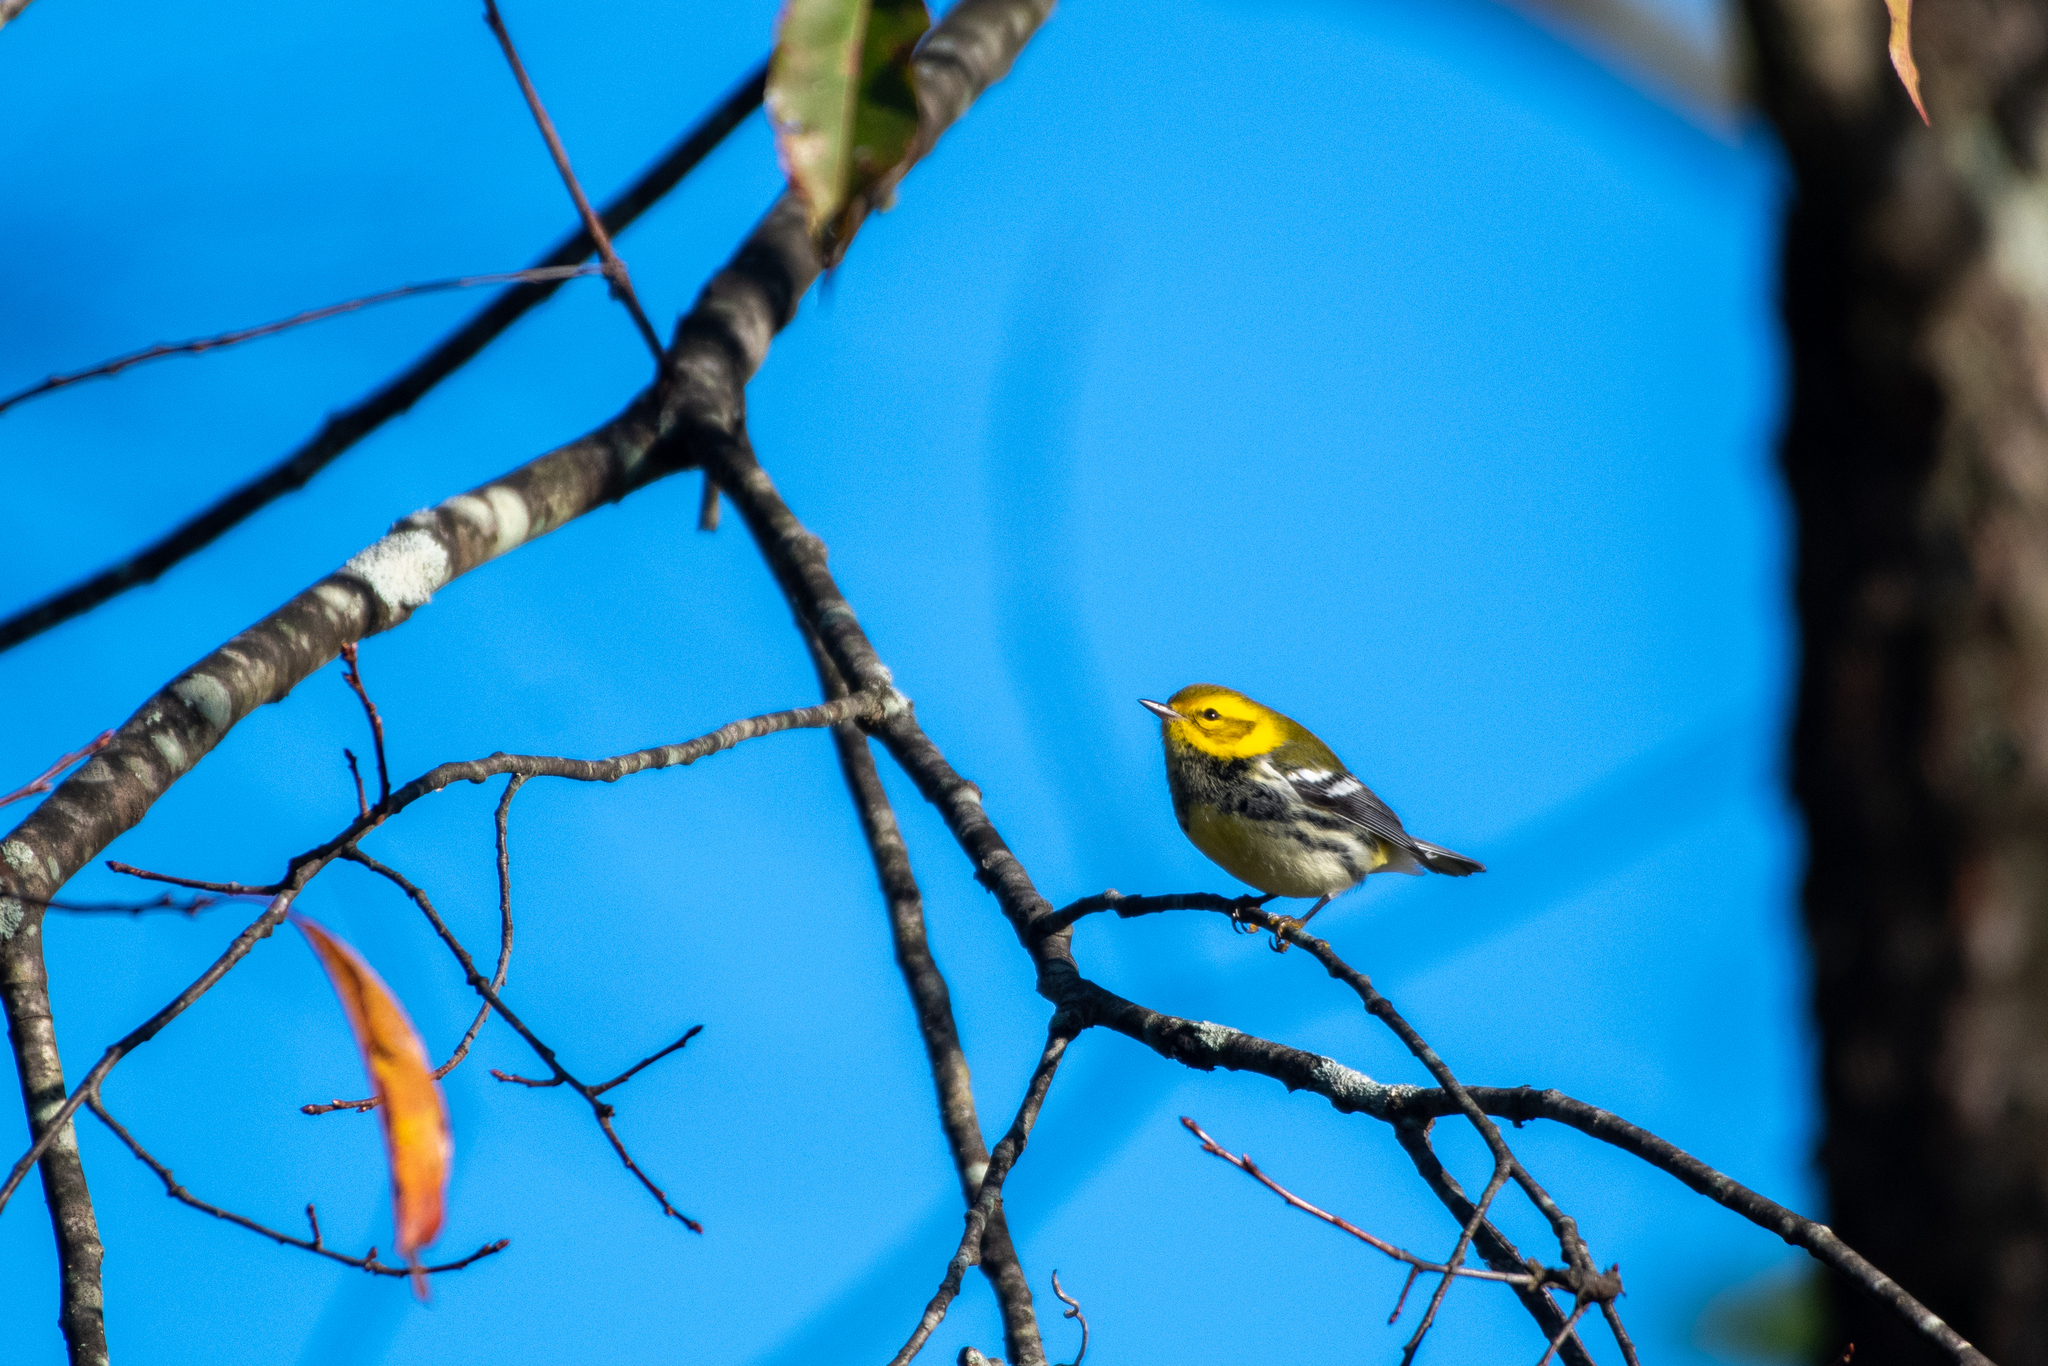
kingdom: Animalia
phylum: Chordata
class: Aves
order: Passeriformes
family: Parulidae
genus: Setophaga
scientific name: Setophaga virens
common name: Black-throated green warbler
